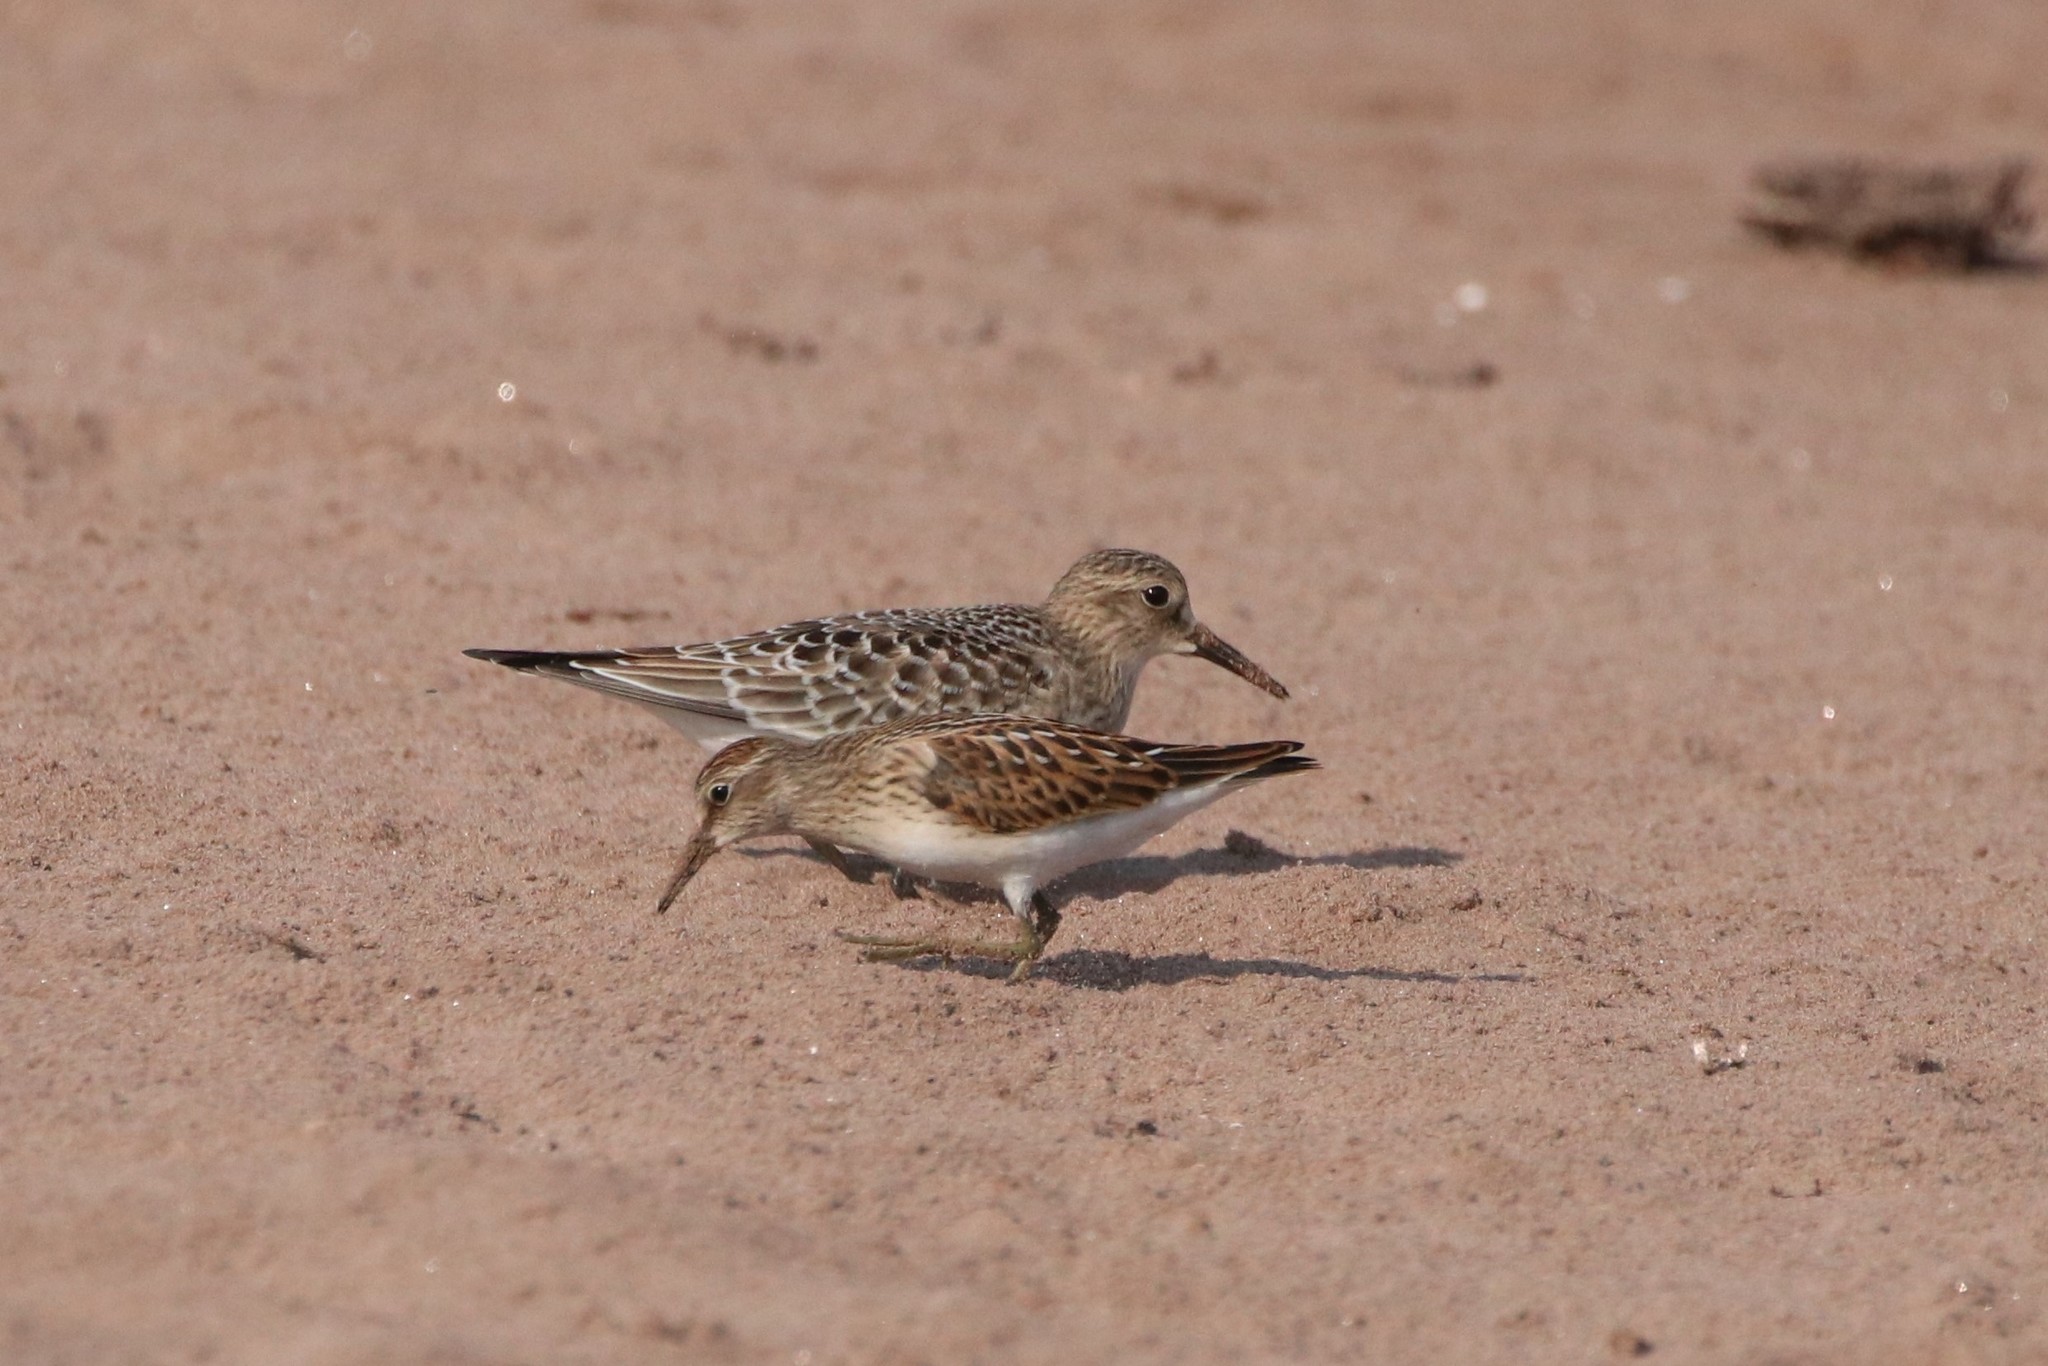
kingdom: Animalia
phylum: Chordata
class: Aves
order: Charadriiformes
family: Scolopacidae
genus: Calidris
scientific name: Calidris minutilla
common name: Least sandpiper
